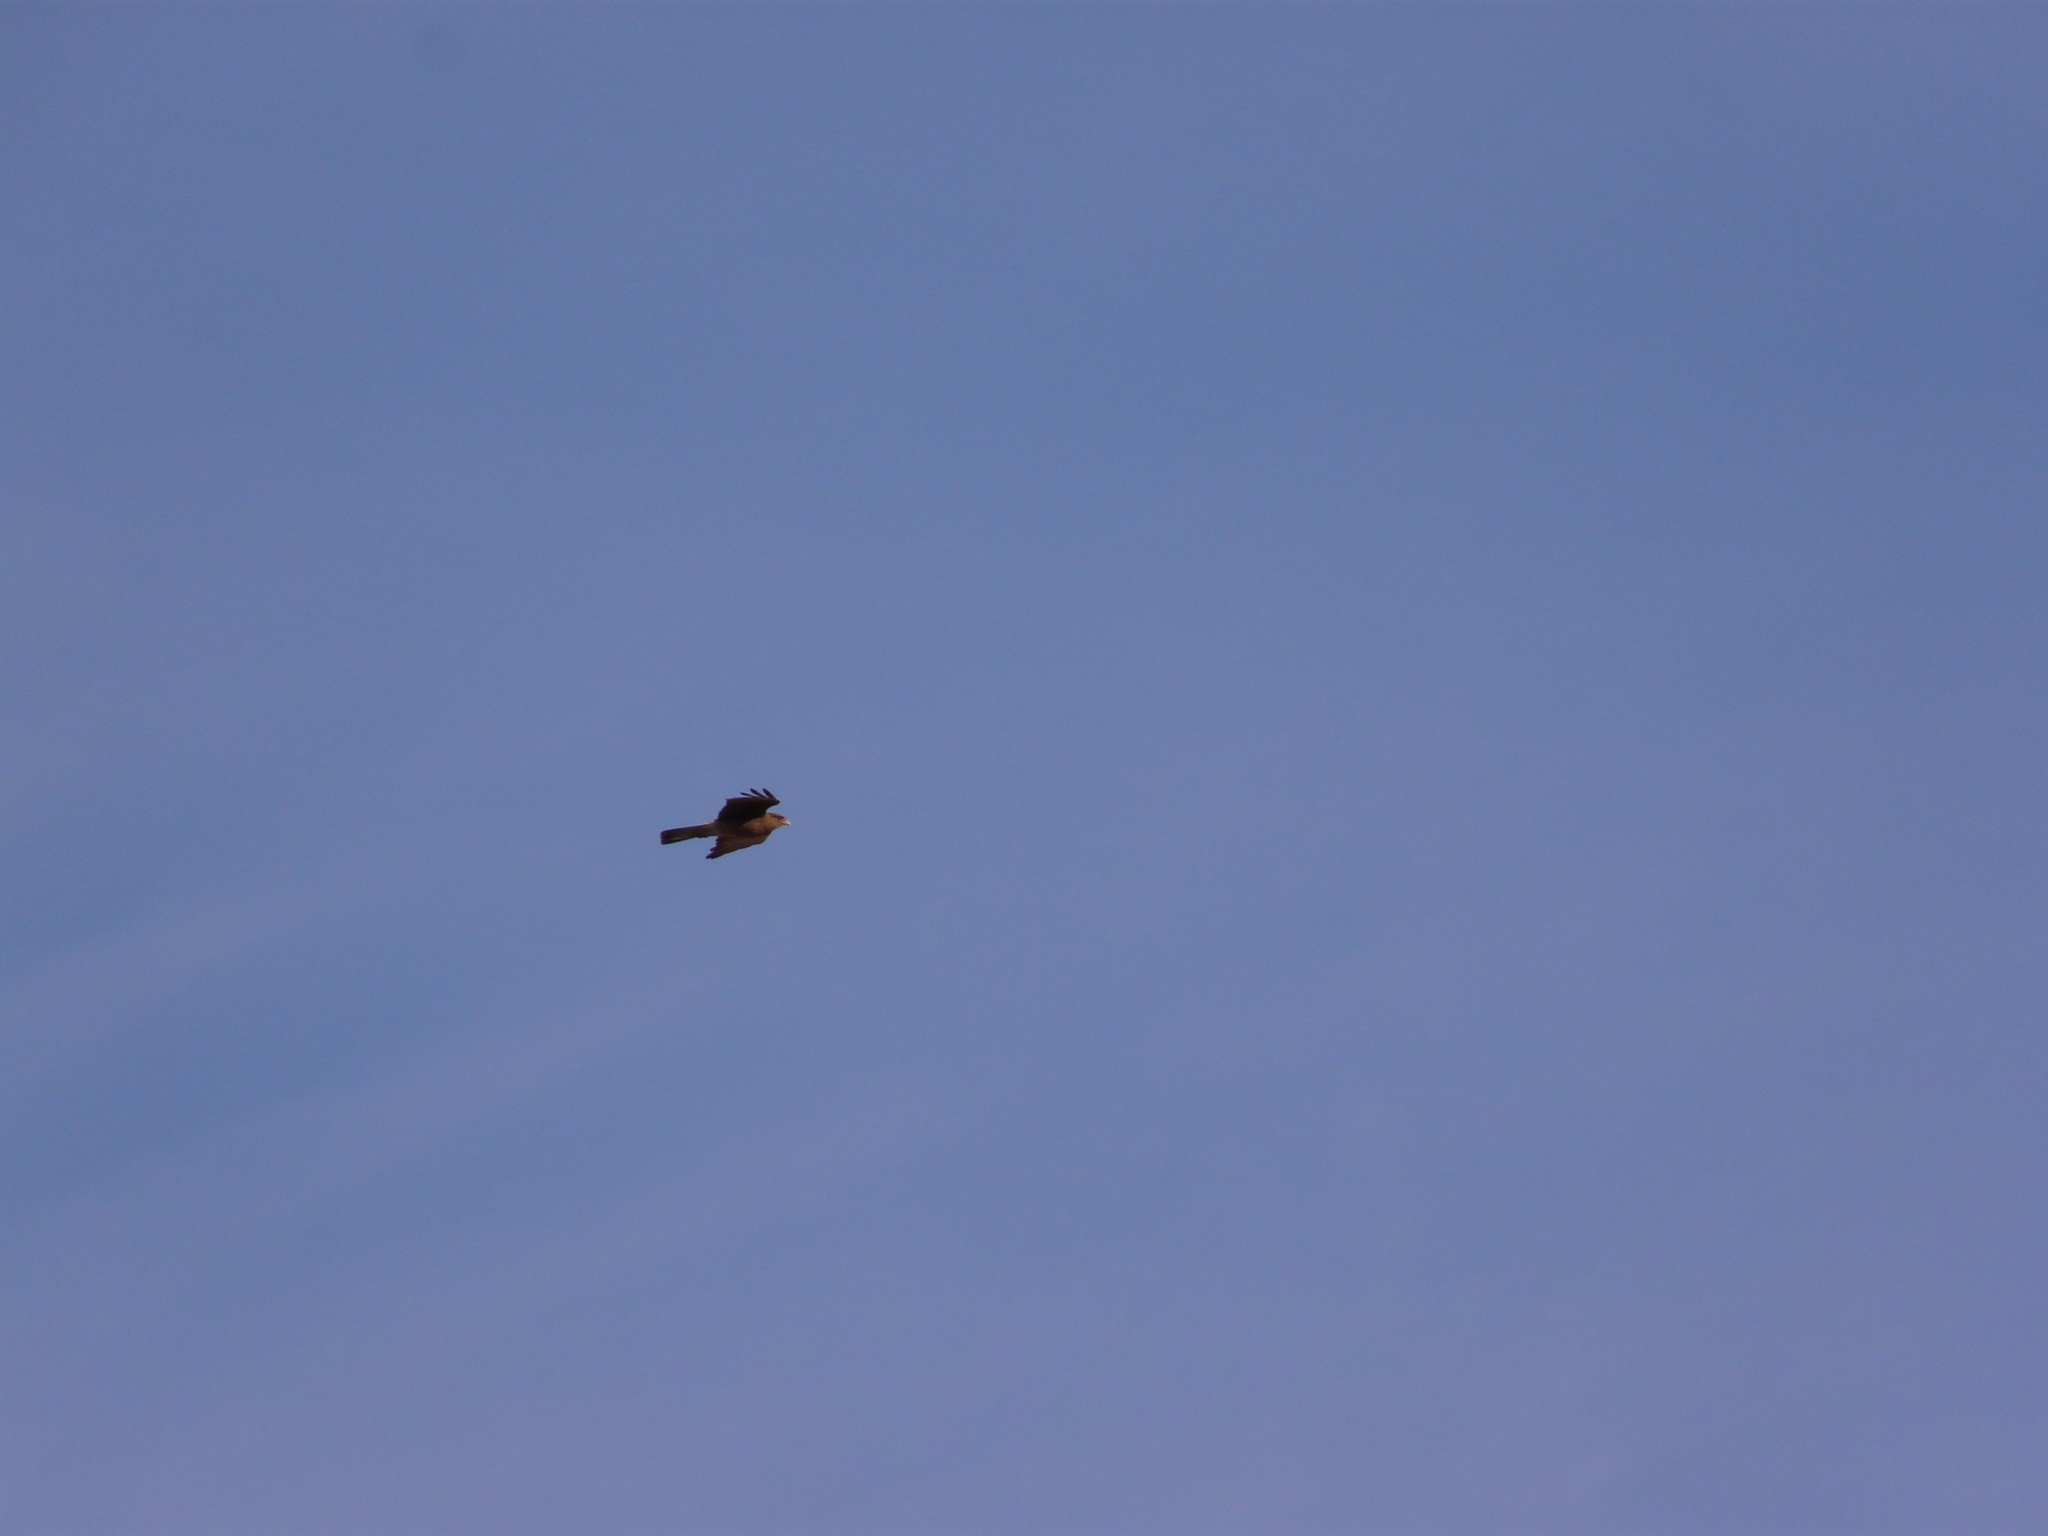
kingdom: Animalia
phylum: Chordata
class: Aves
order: Falconiformes
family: Falconidae
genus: Daptrius
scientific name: Daptrius
